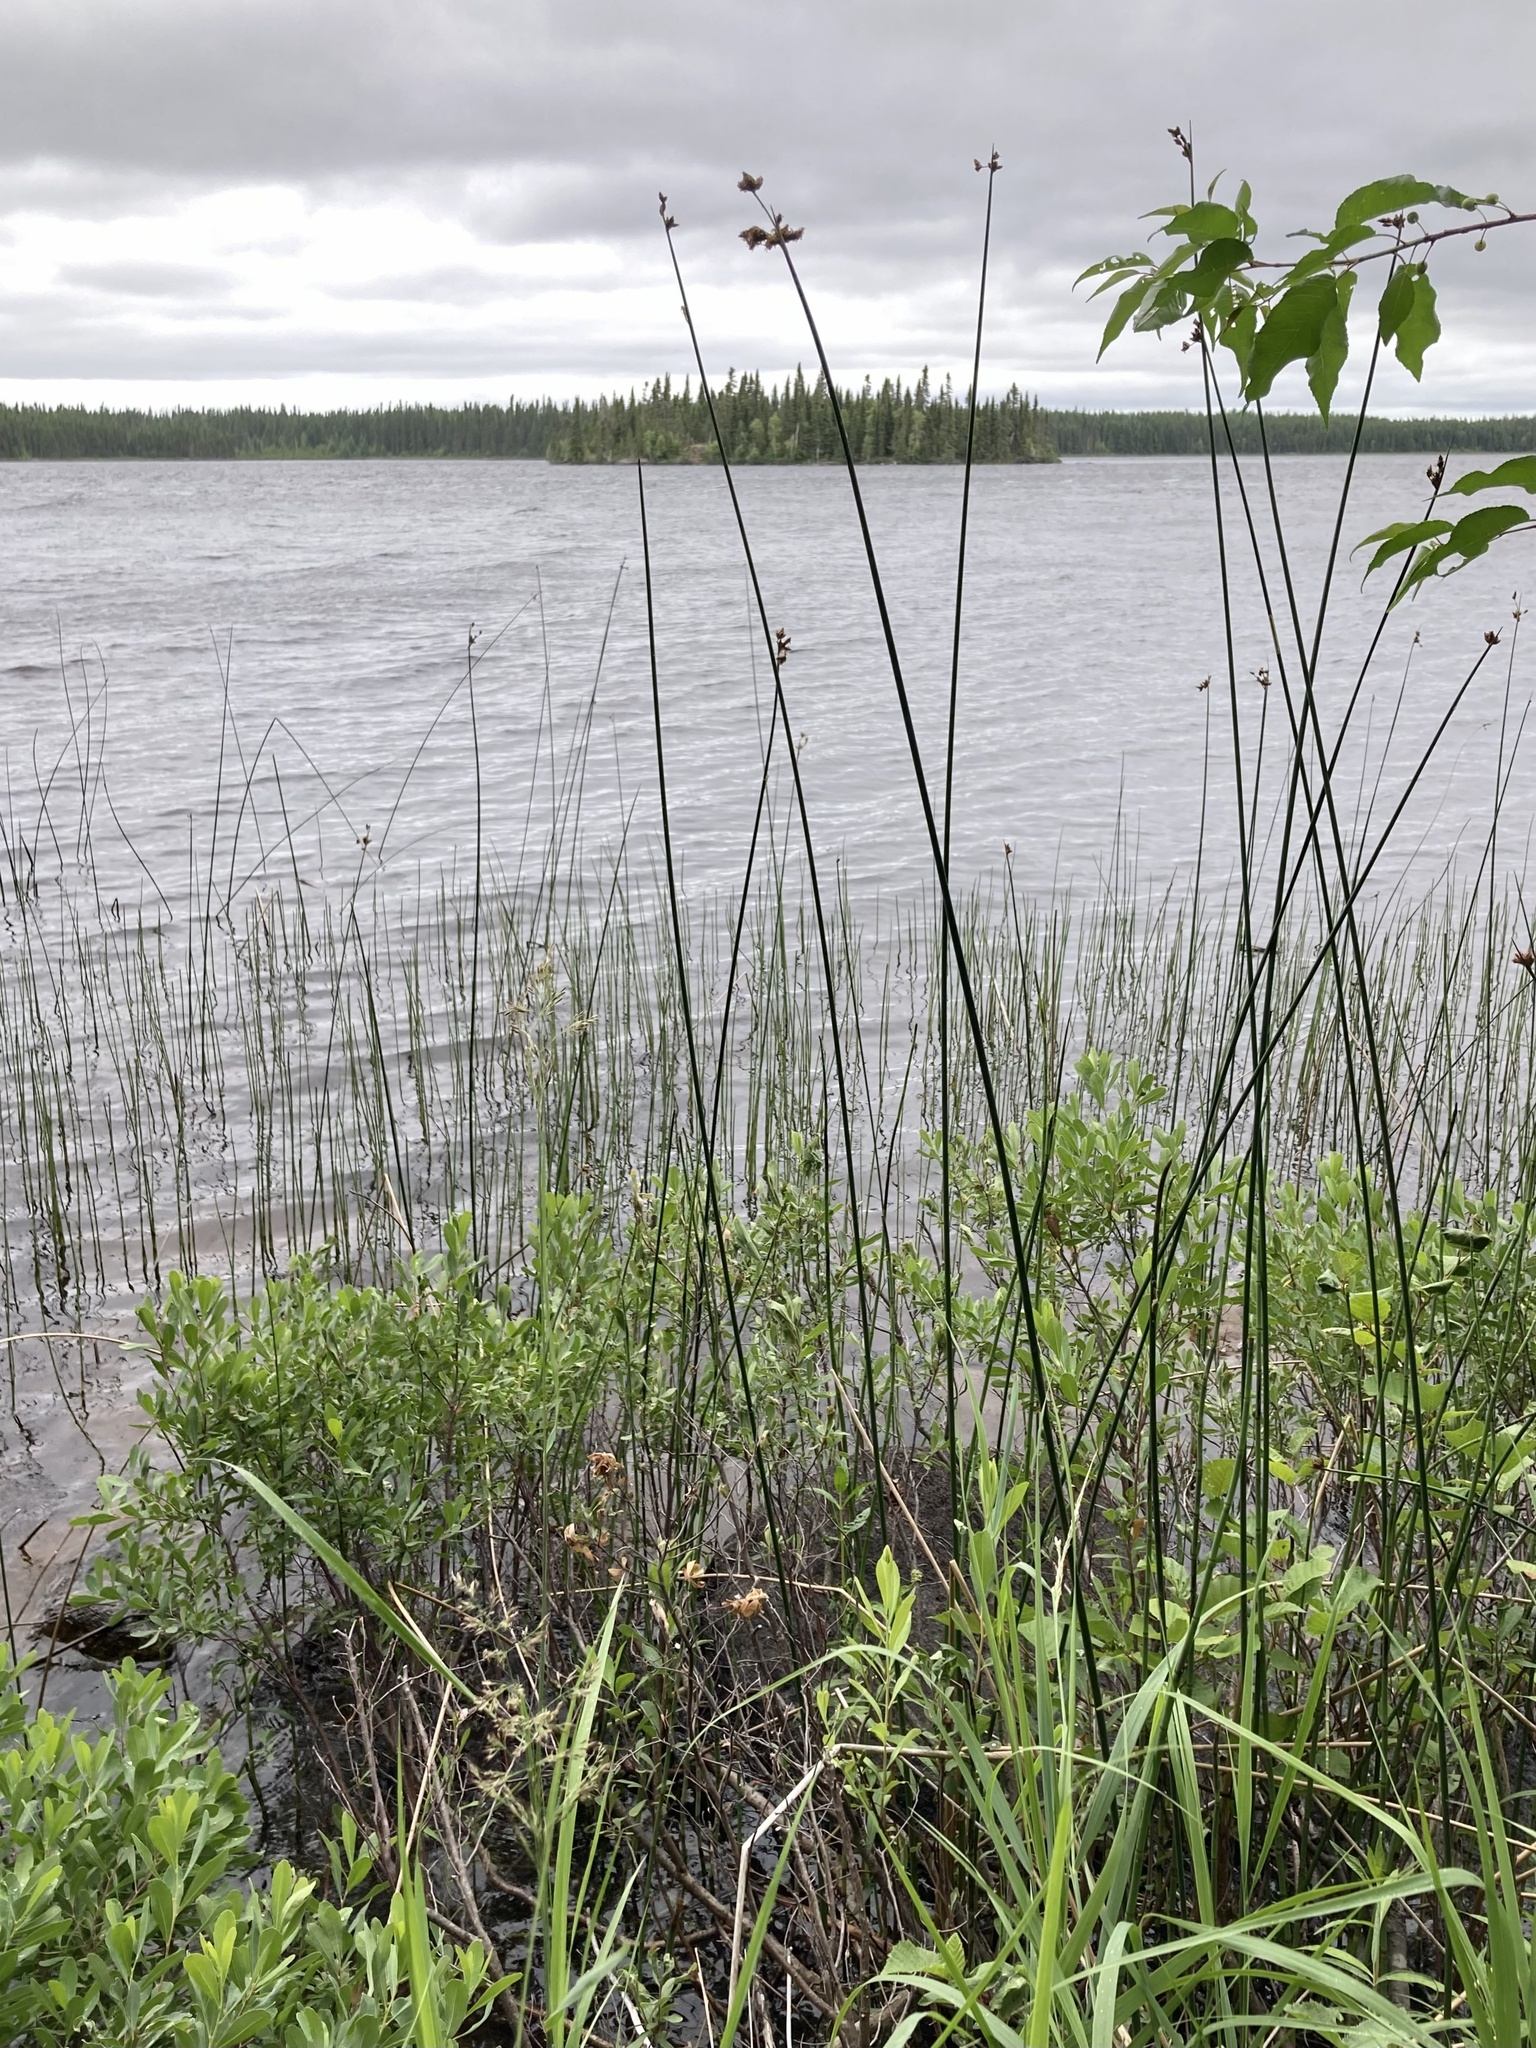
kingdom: Plantae
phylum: Tracheophyta
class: Liliopsida
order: Poales
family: Cyperaceae
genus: Schoenoplectus
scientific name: Schoenoplectus acutus
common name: Hardstem bulrush
